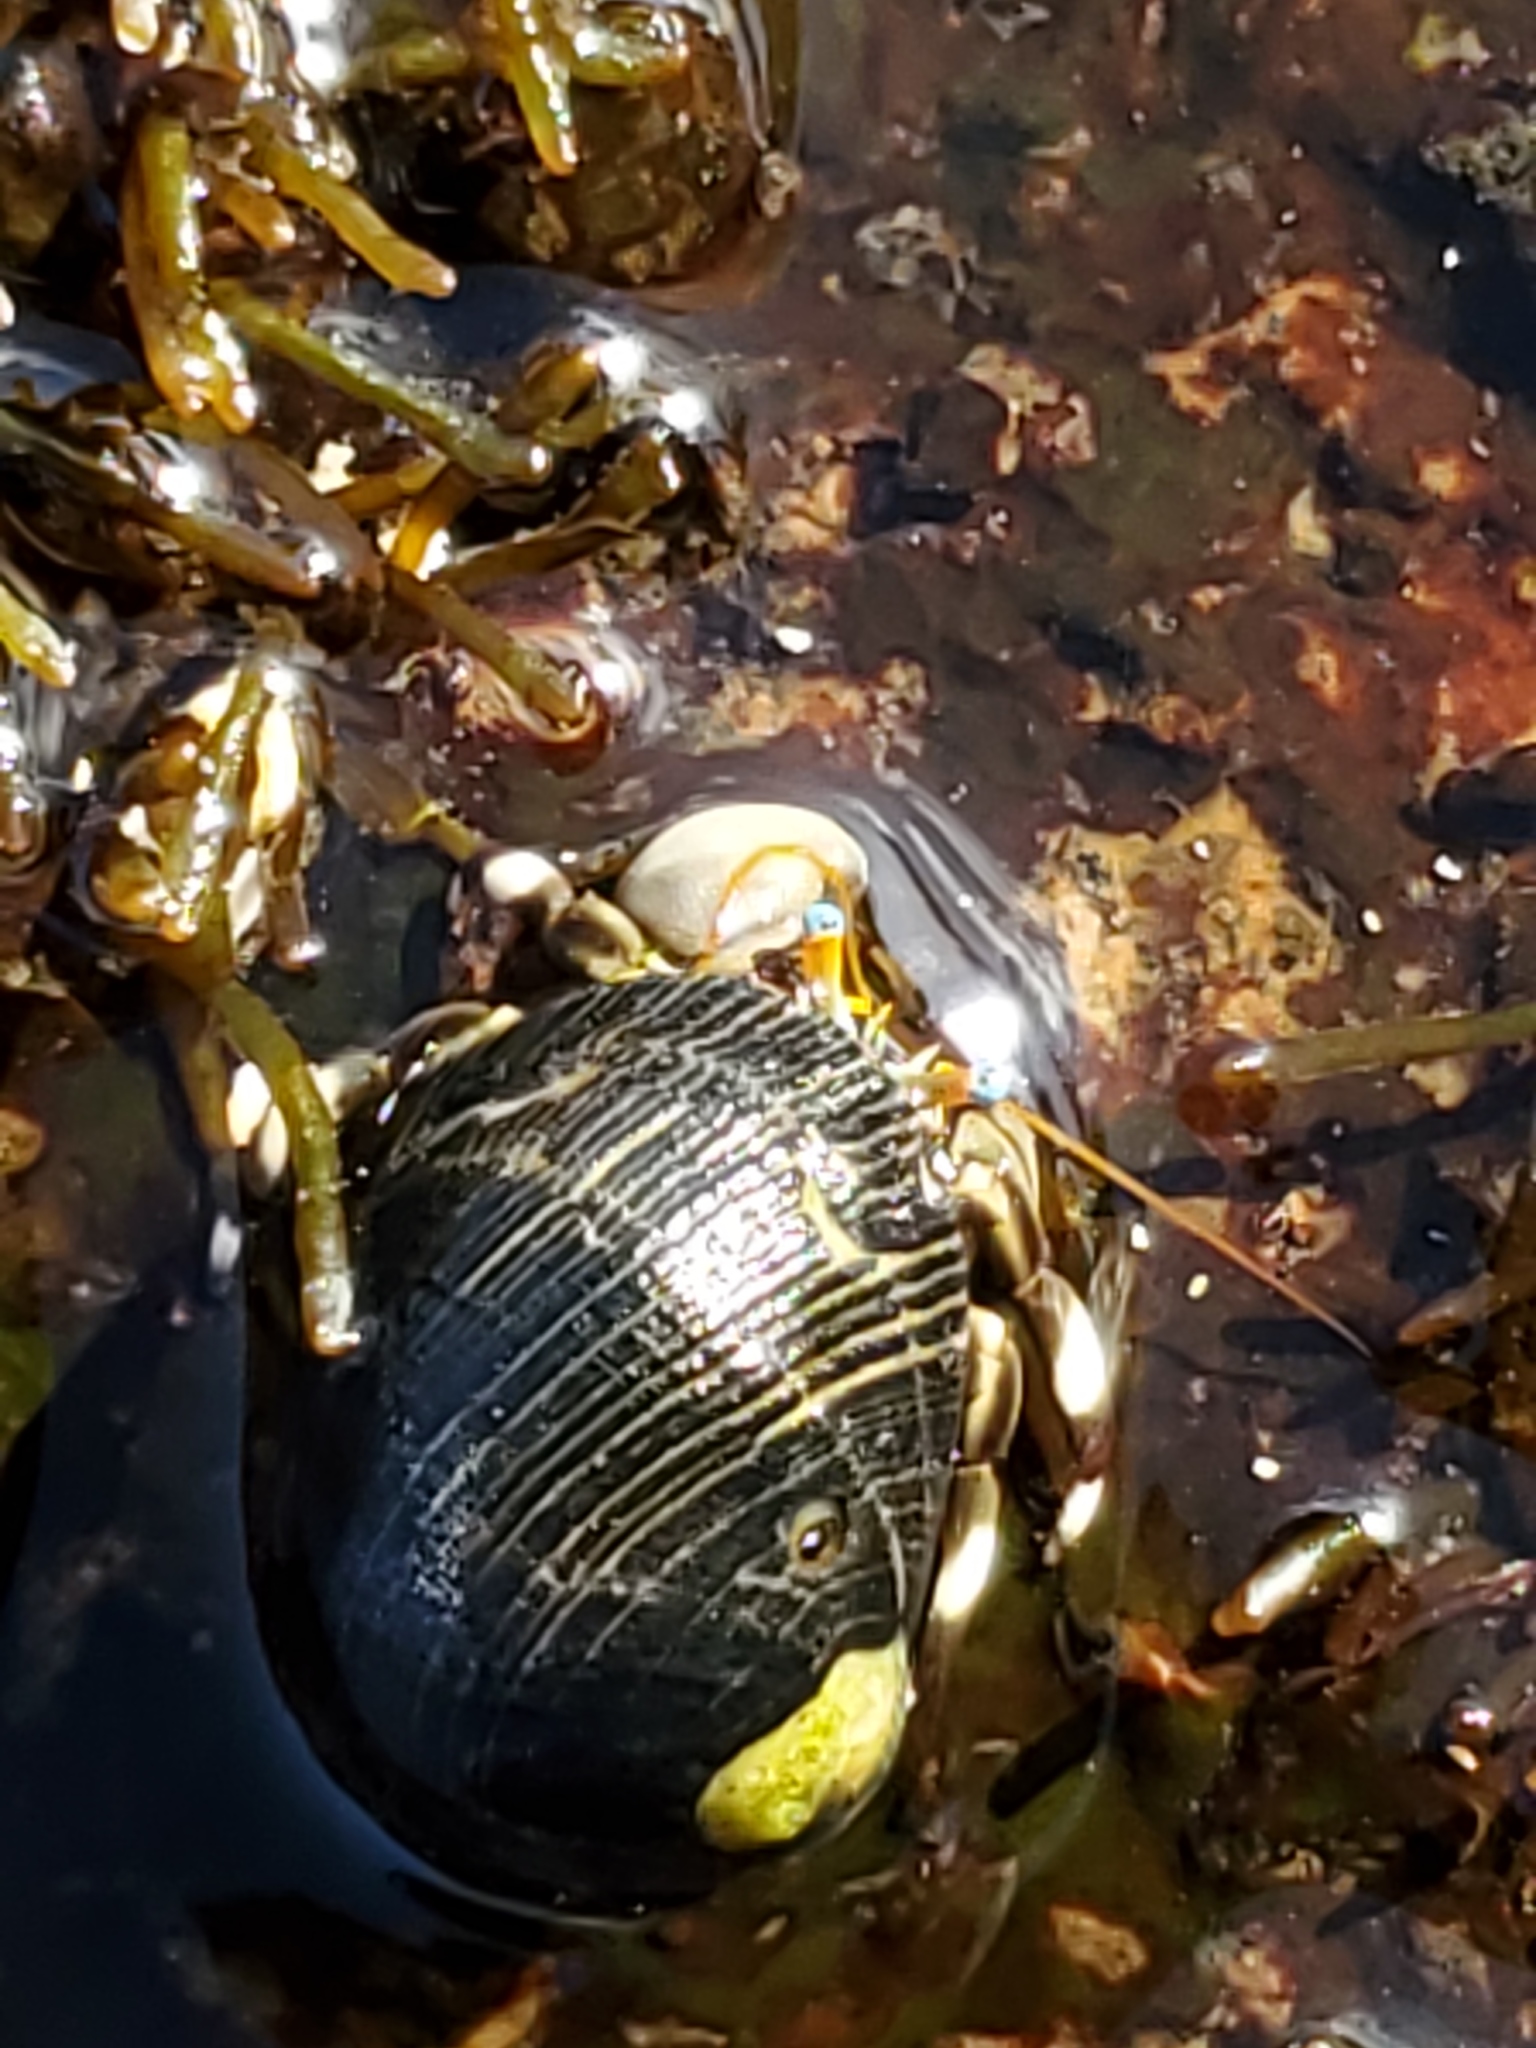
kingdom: Animalia
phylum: Arthropoda
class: Malacostraca
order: Decapoda
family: Diogenidae
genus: Calcinus
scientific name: Calcinus seurati
